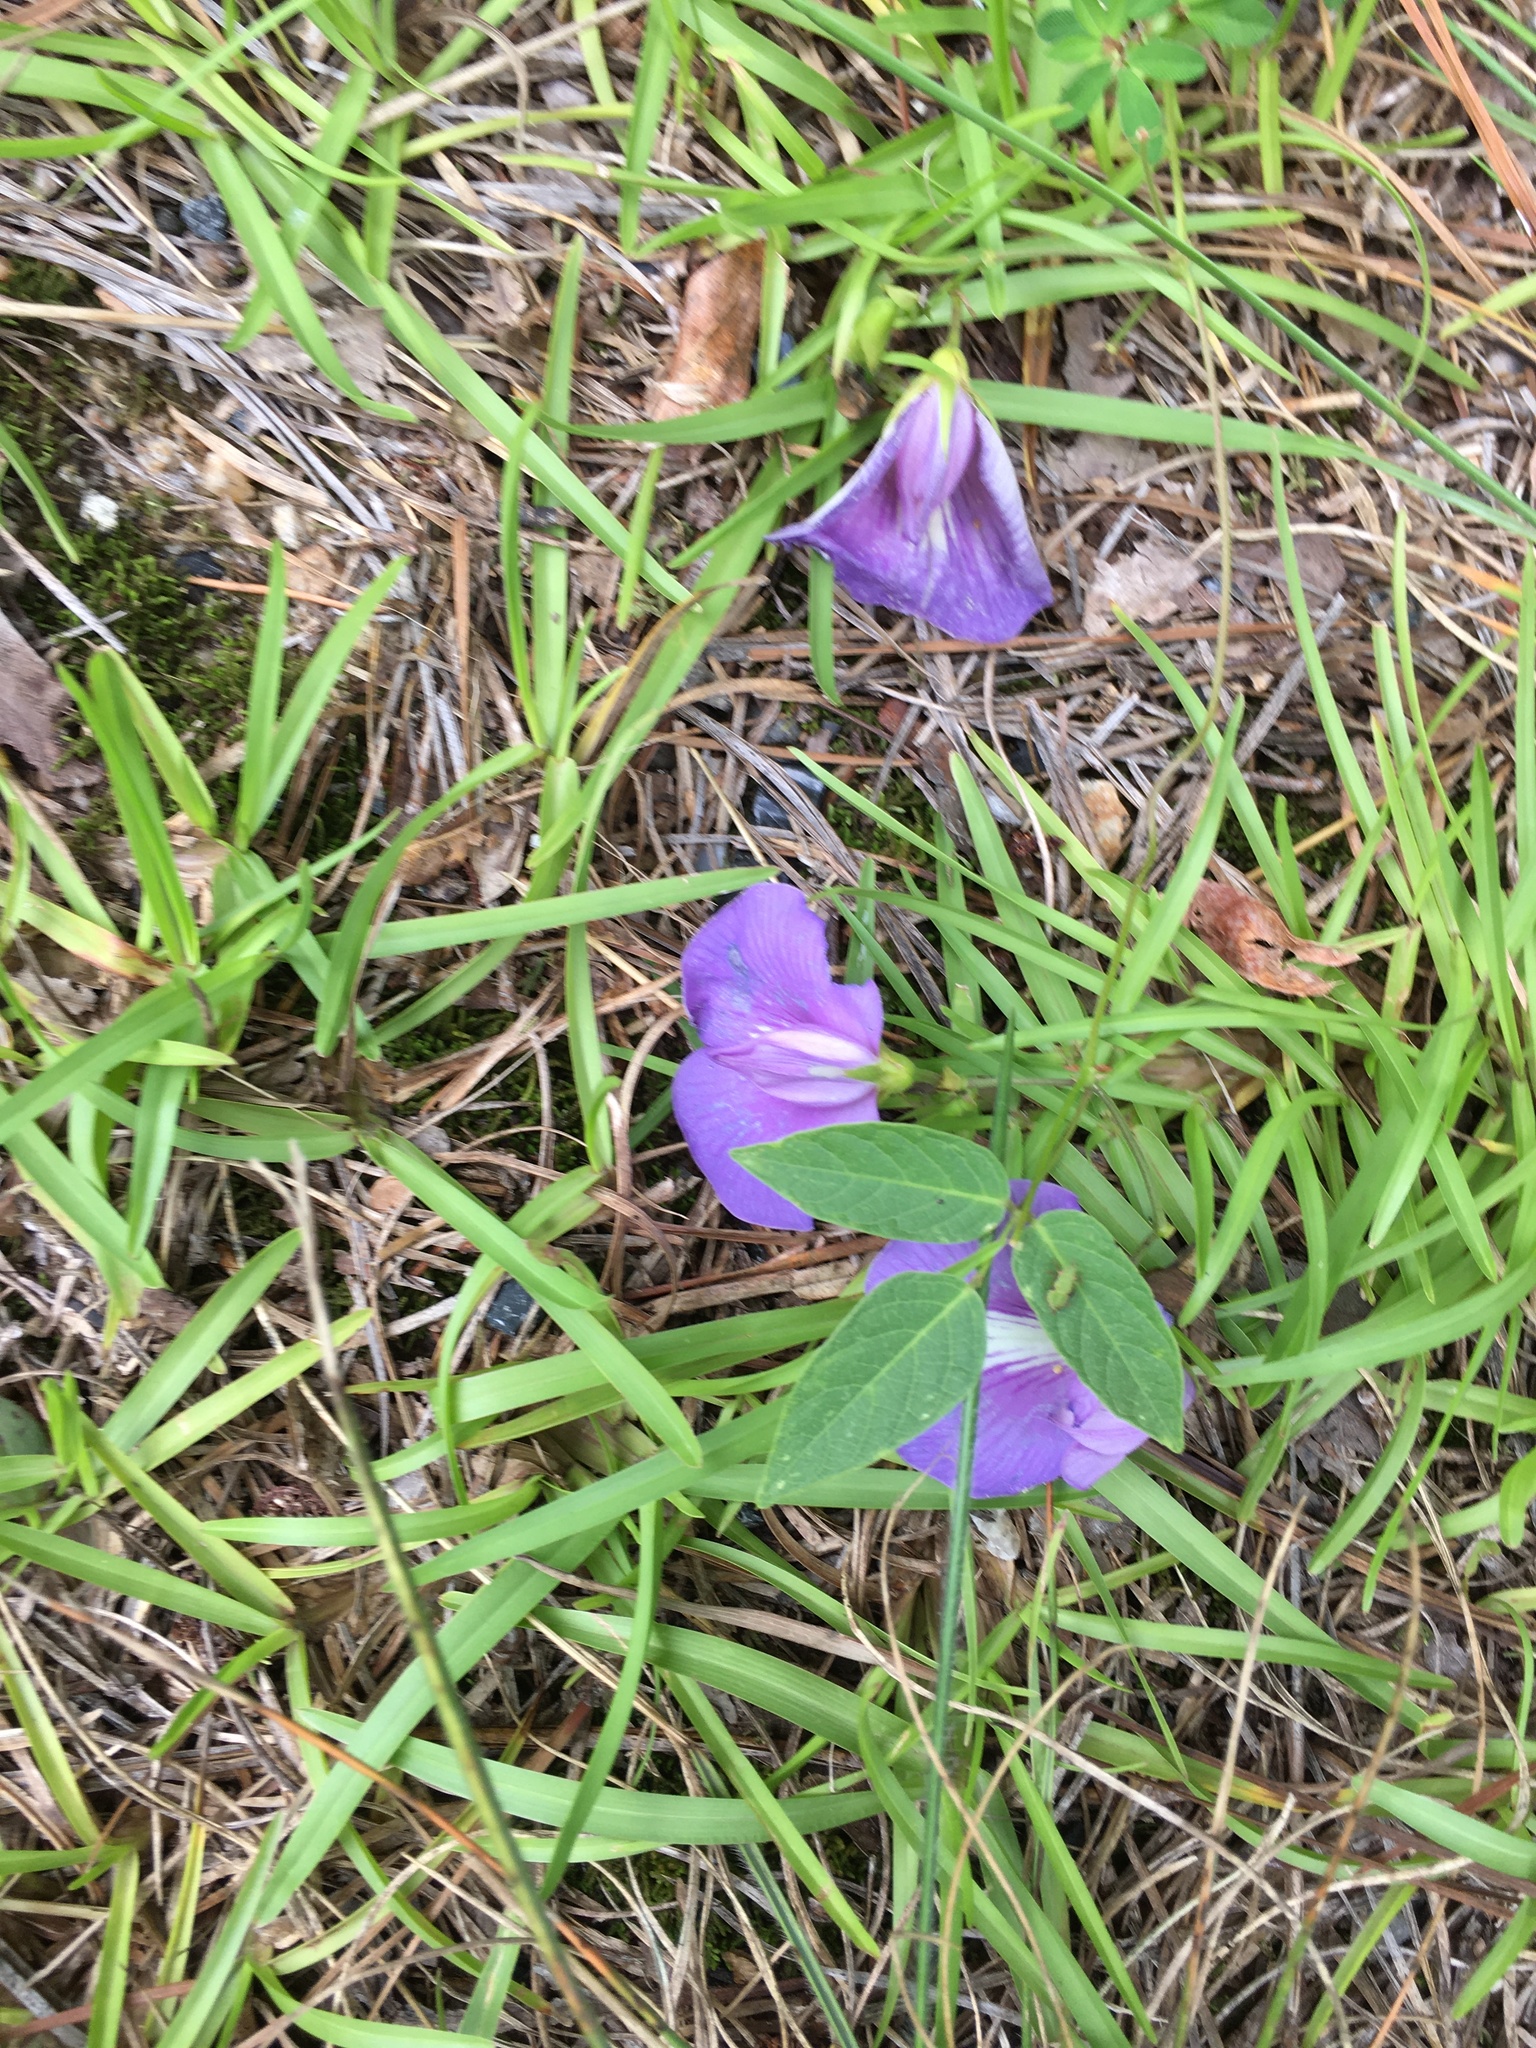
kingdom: Plantae
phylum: Tracheophyta
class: Magnoliopsida
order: Fabales
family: Fabaceae
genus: Centrosema
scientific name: Centrosema virginianum
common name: Butterfly-pea
